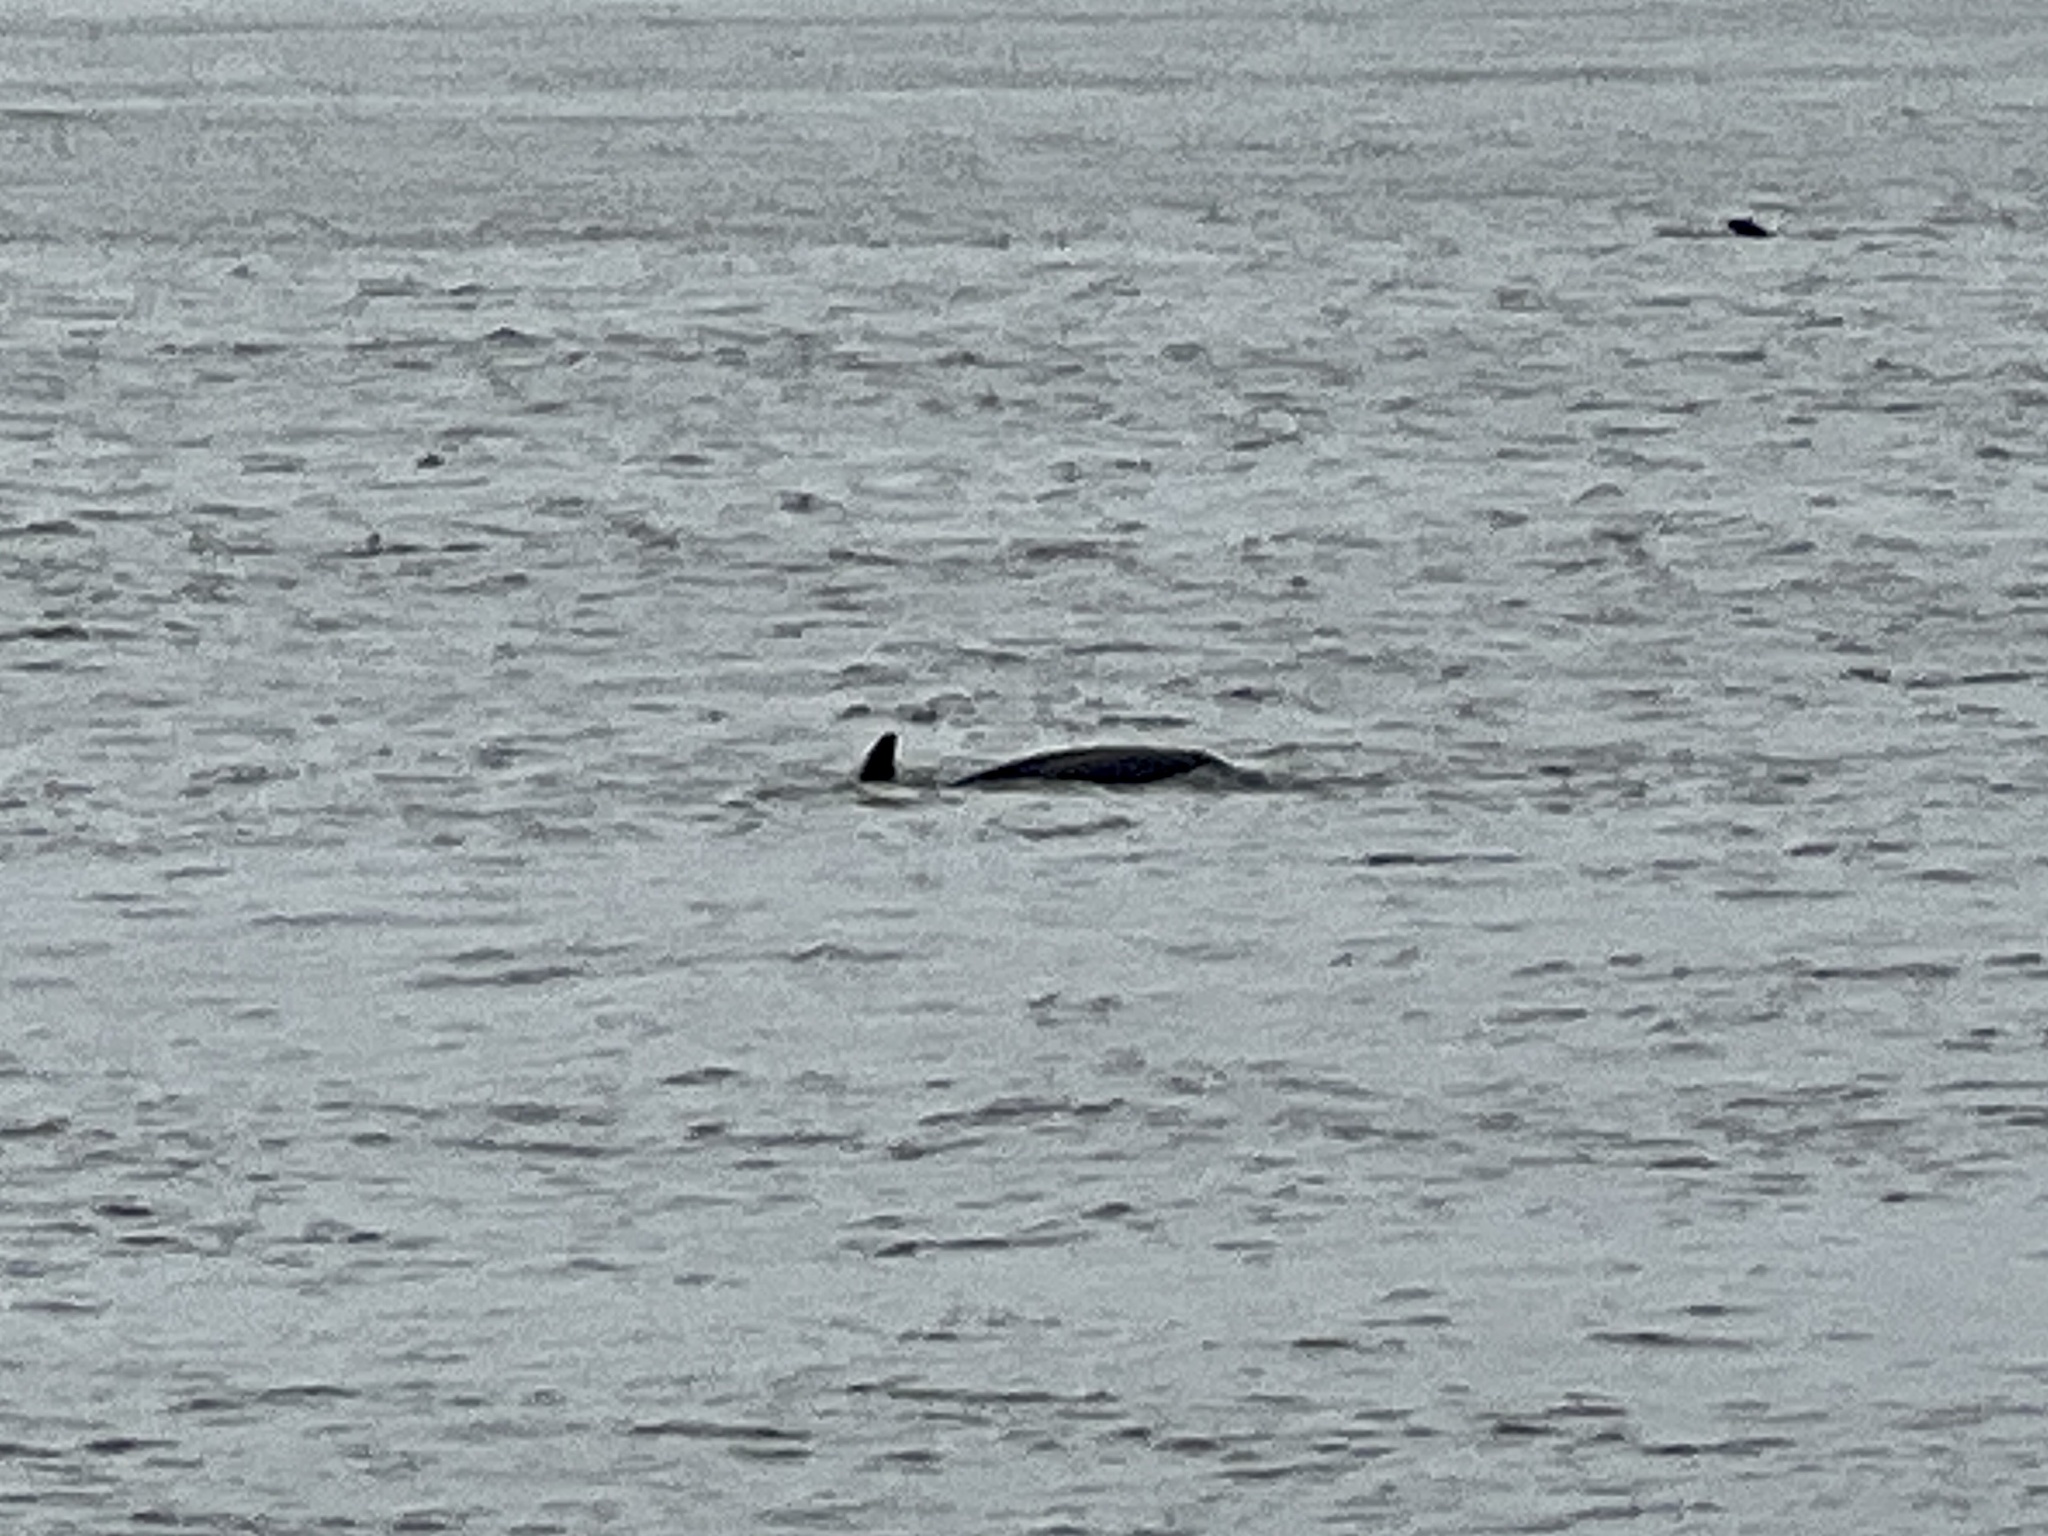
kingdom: Animalia
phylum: Chordata
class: Mammalia
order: Cetacea
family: Delphinidae
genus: Tursiops
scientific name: Tursiops truncatus
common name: Bottlenose dolphin
